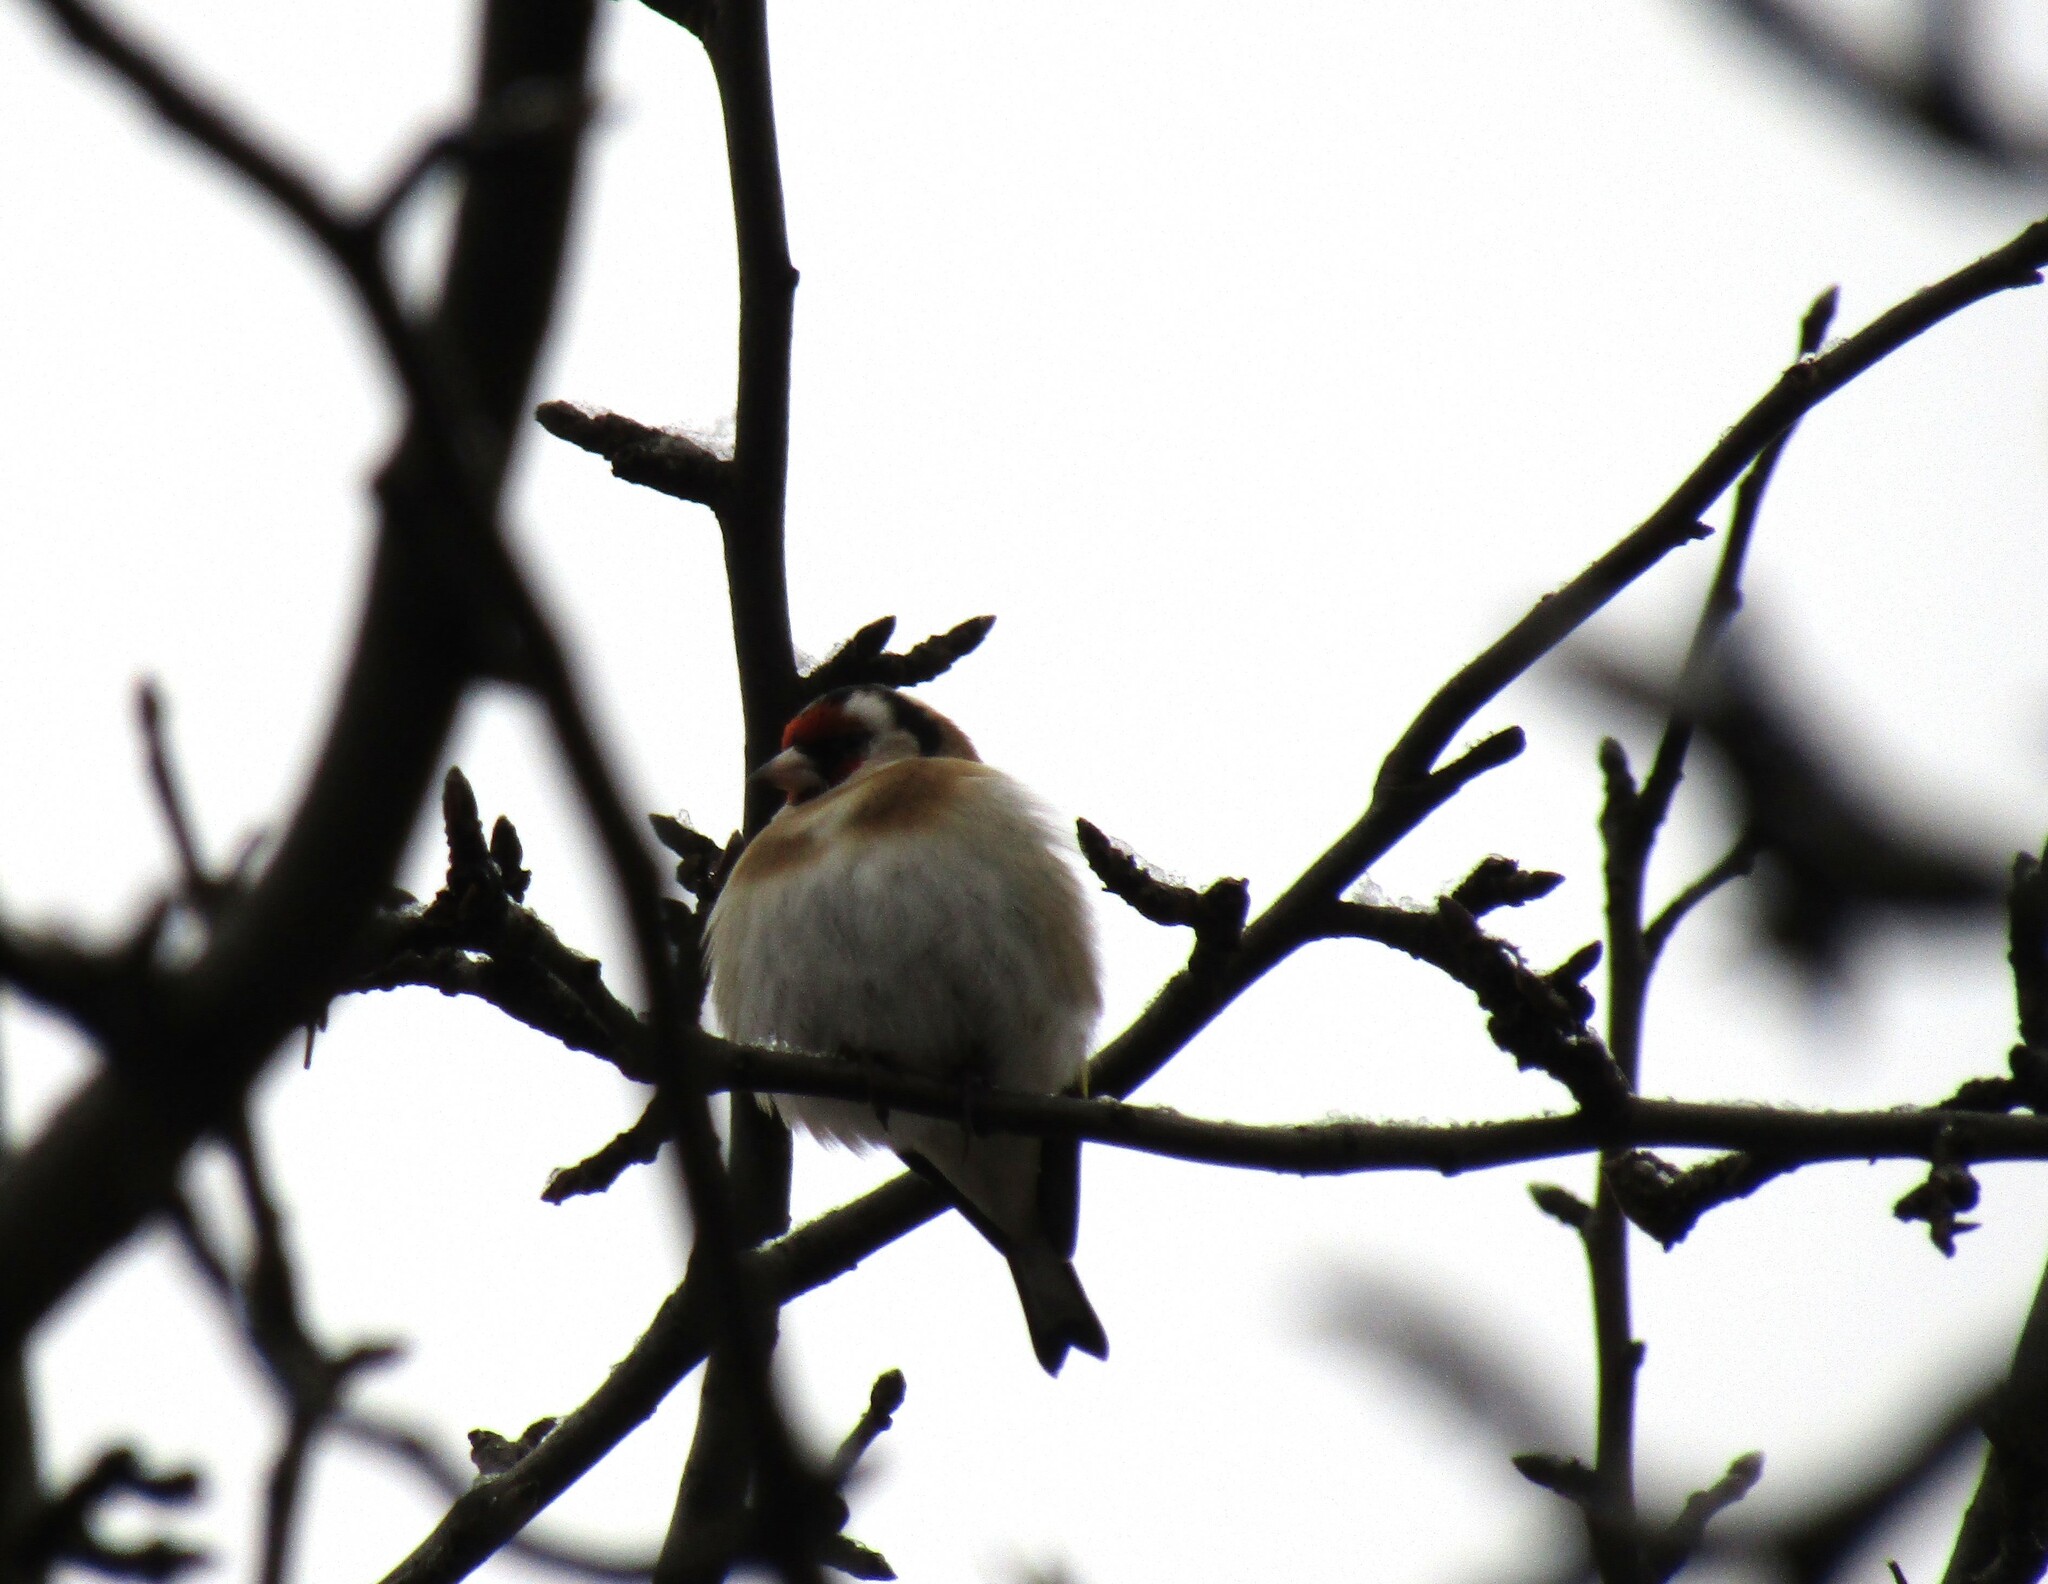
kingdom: Animalia
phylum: Chordata
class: Aves
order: Passeriformes
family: Fringillidae
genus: Carduelis
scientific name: Carduelis carduelis
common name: European goldfinch
